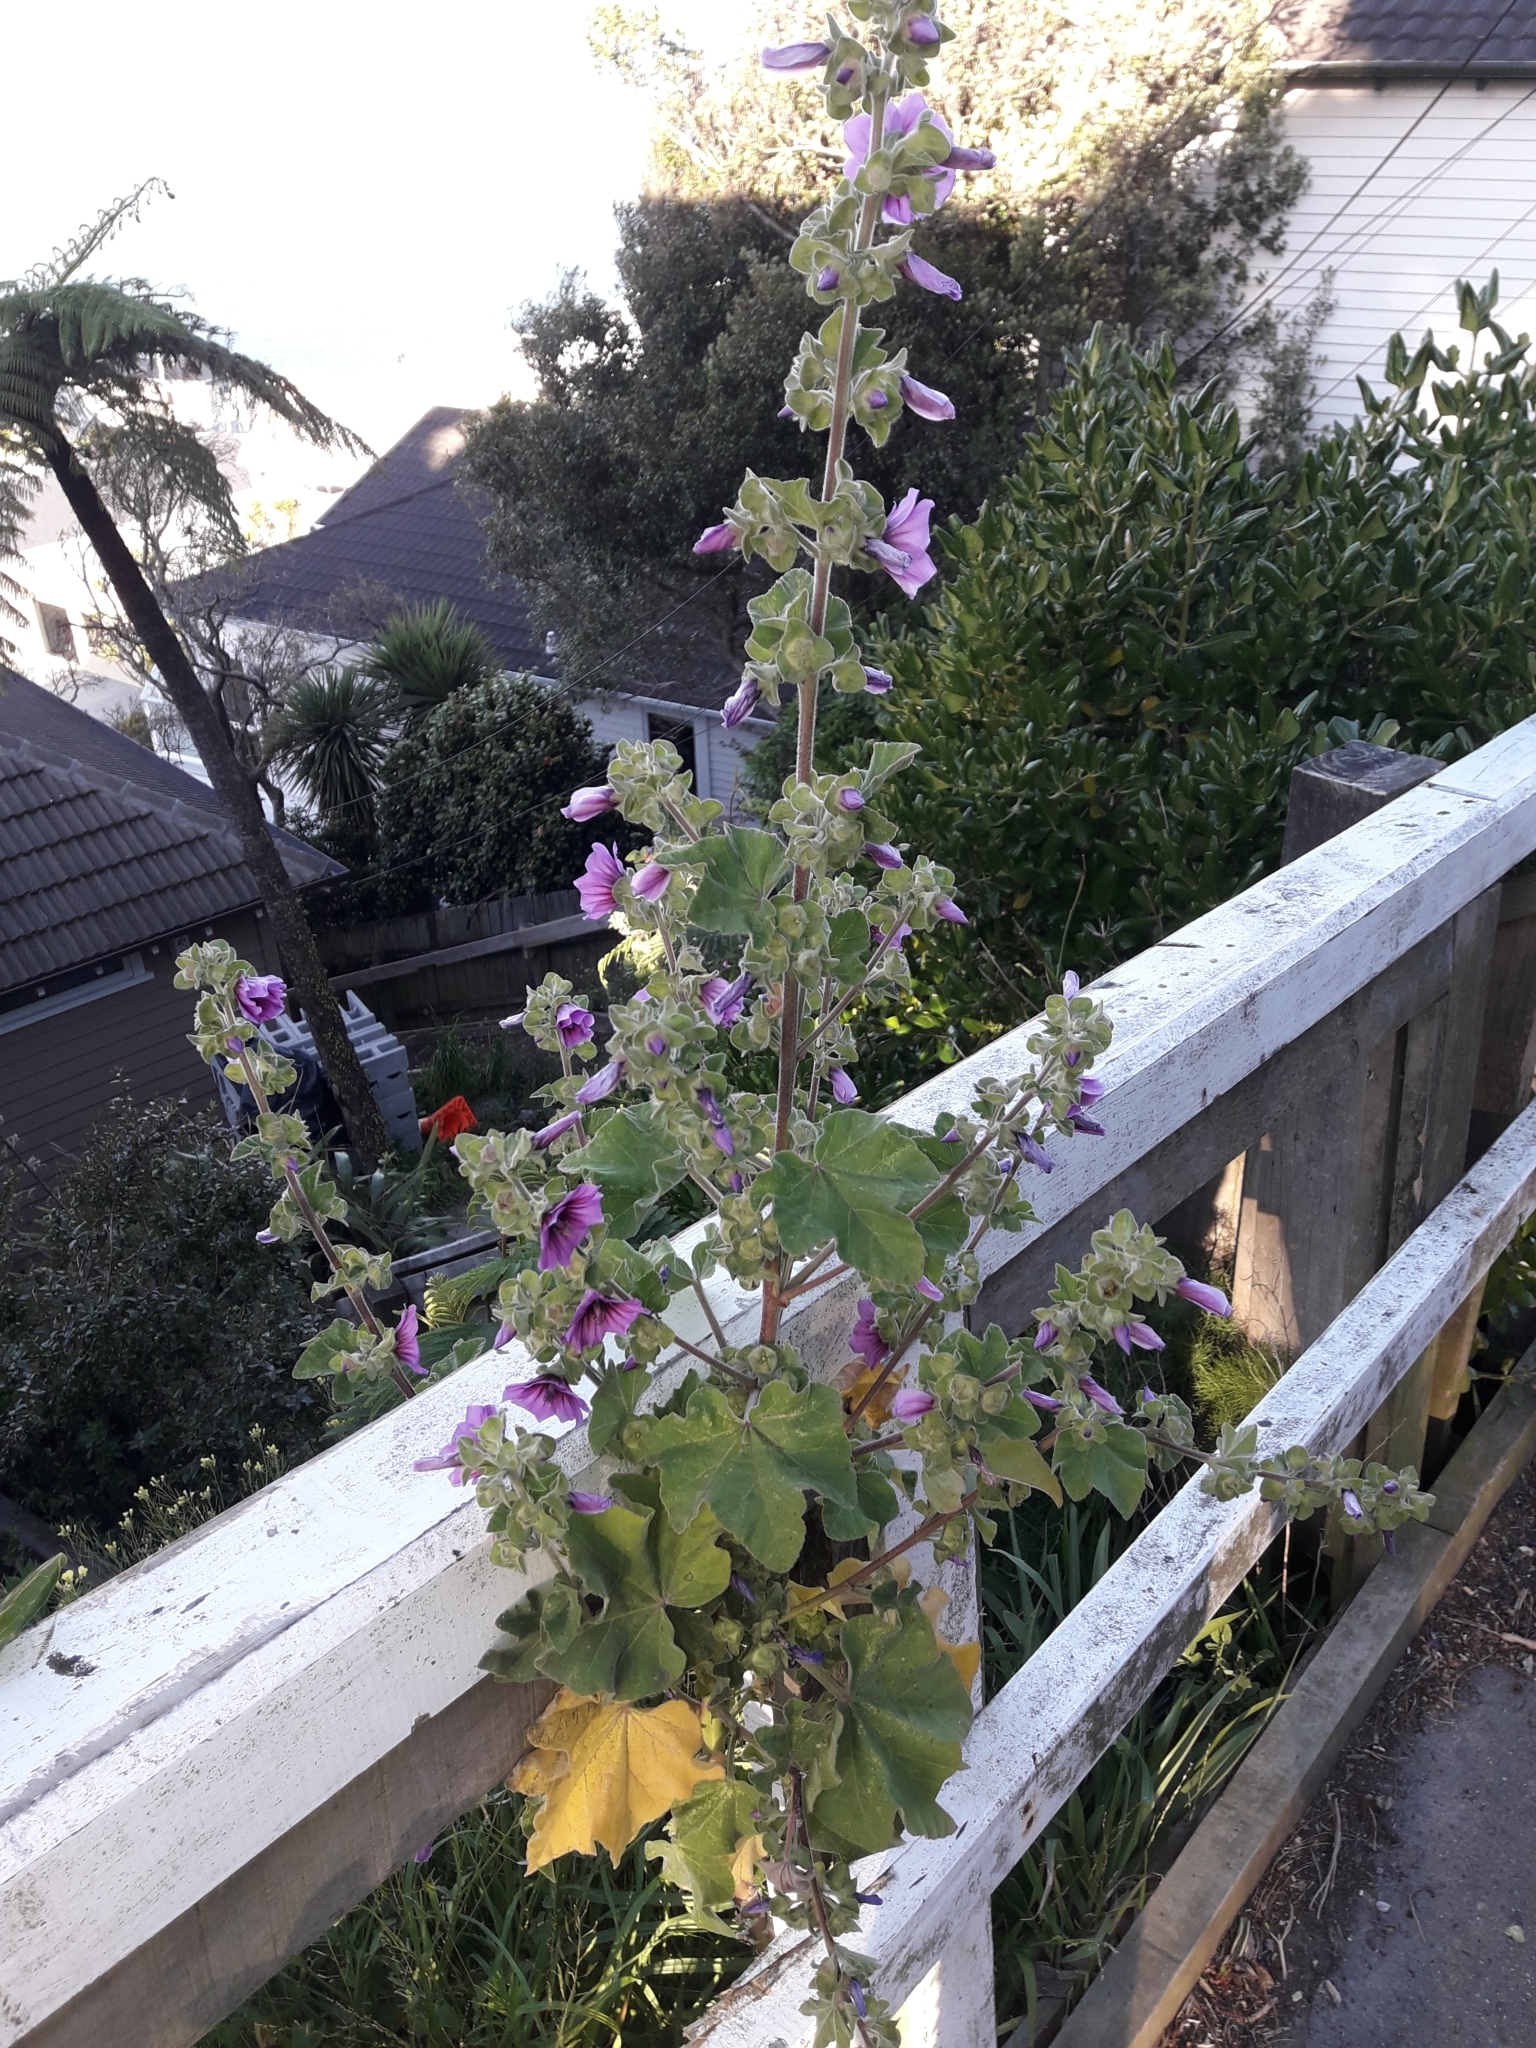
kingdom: Plantae
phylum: Tracheophyta
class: Magnoliopsida
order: Malvales
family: Malvaceae
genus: Malva
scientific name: Malva arborea
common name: Tree mallow
